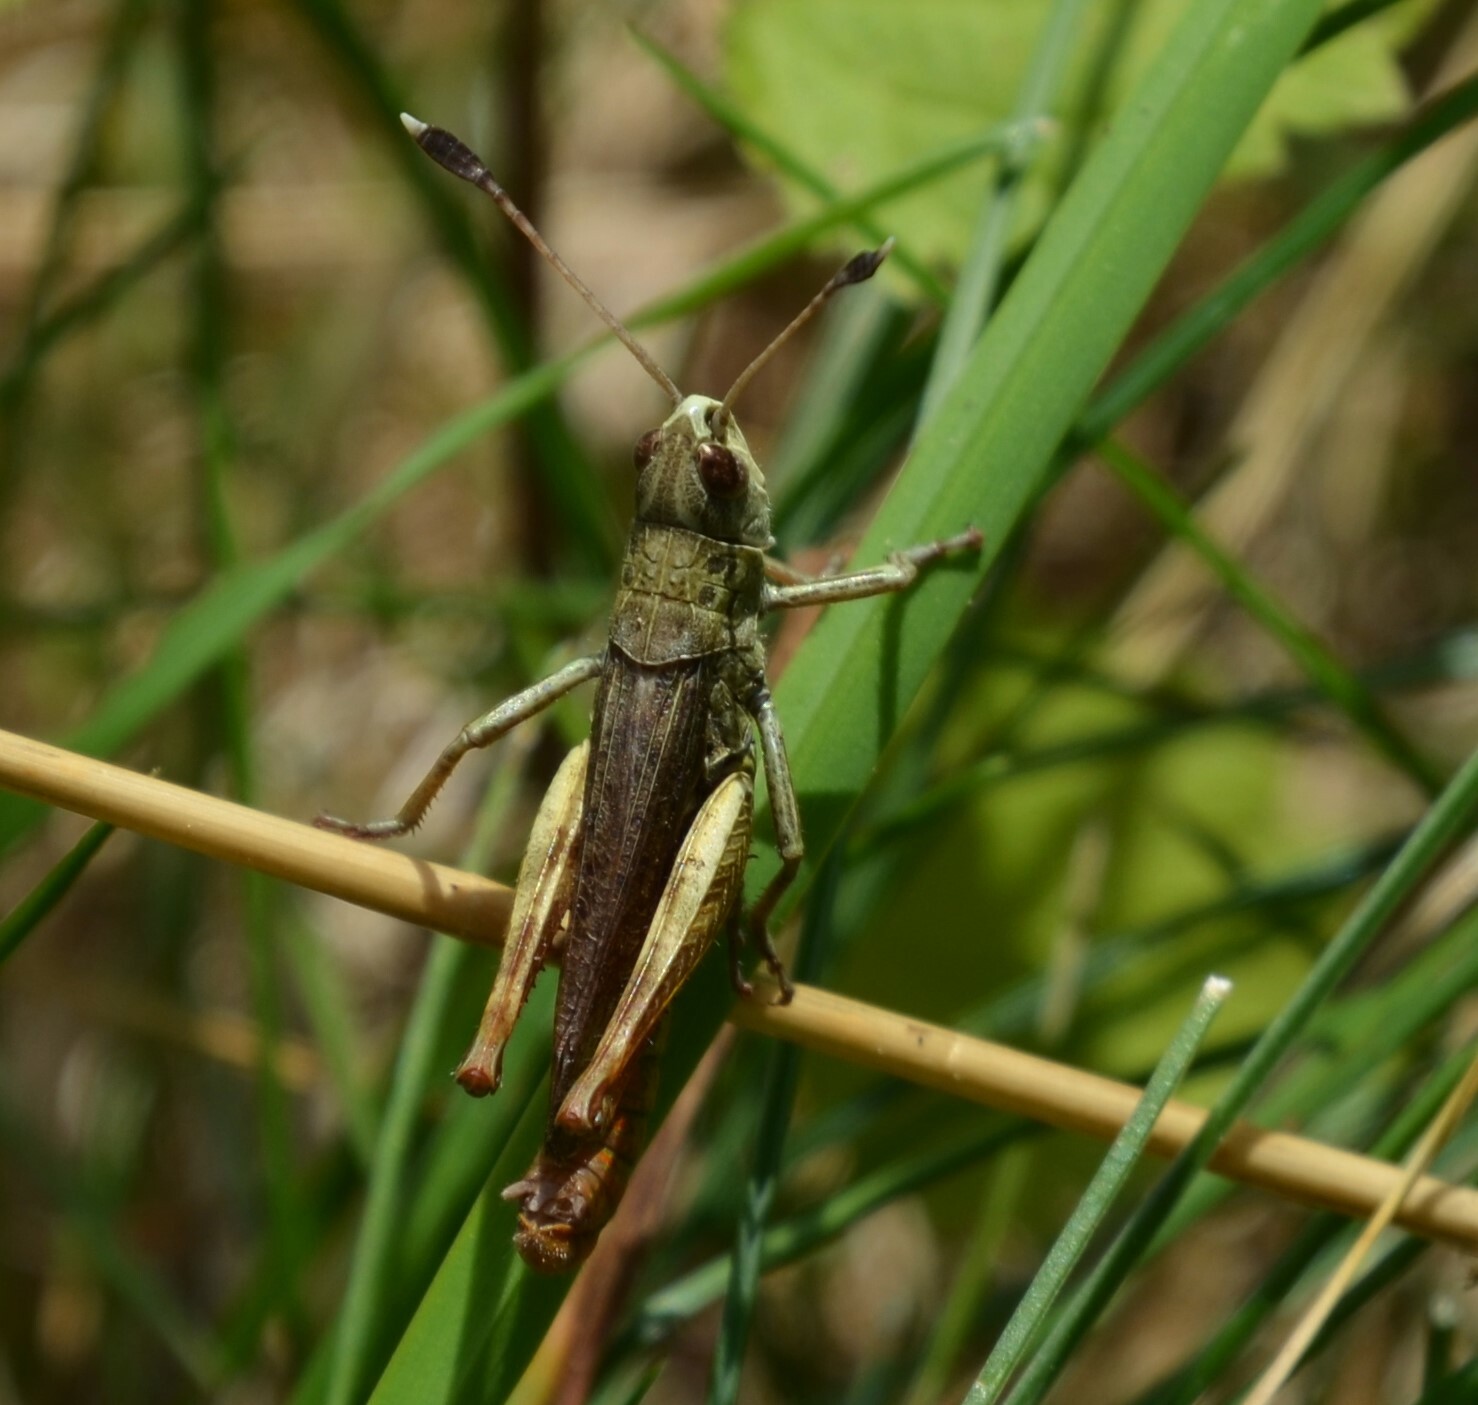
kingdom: Animalia
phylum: Arthropoda
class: Insecta
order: Orthoptera
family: Acrididae
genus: Gomphocerippus
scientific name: Gomphocerippus rufus
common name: Rufous grasshopper
